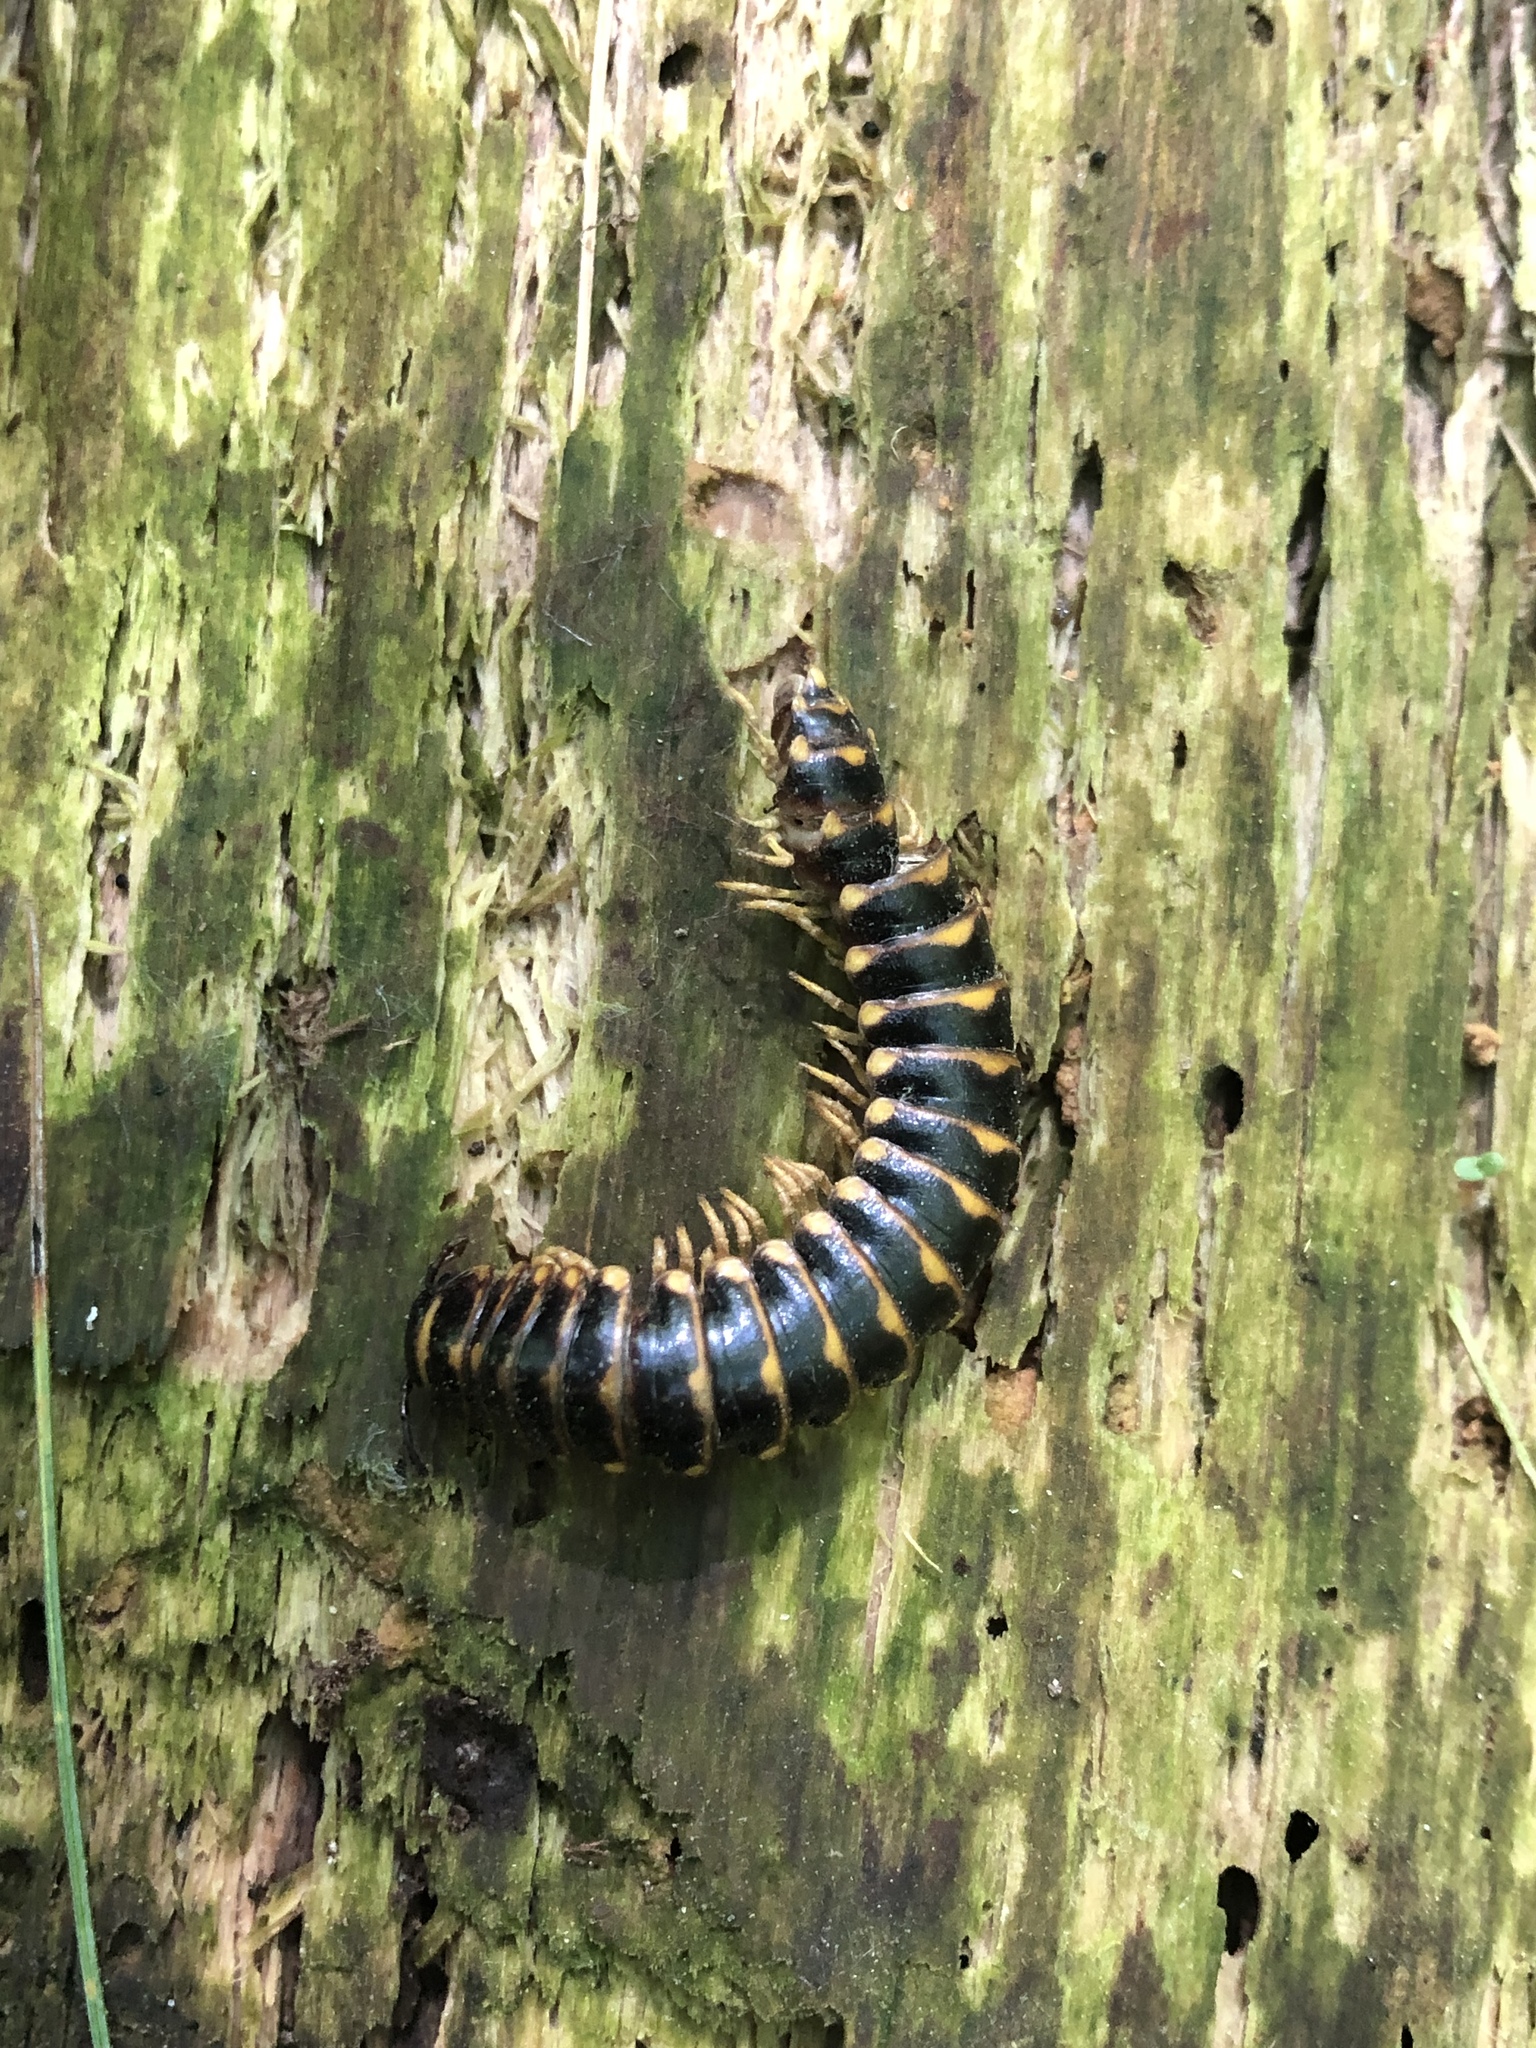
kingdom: Animalia
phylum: Arthropoda
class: Diplopoda
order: Polydesmida
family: Xystodesmidae
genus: Rudiloria
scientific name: Rudiloria trimaculata
